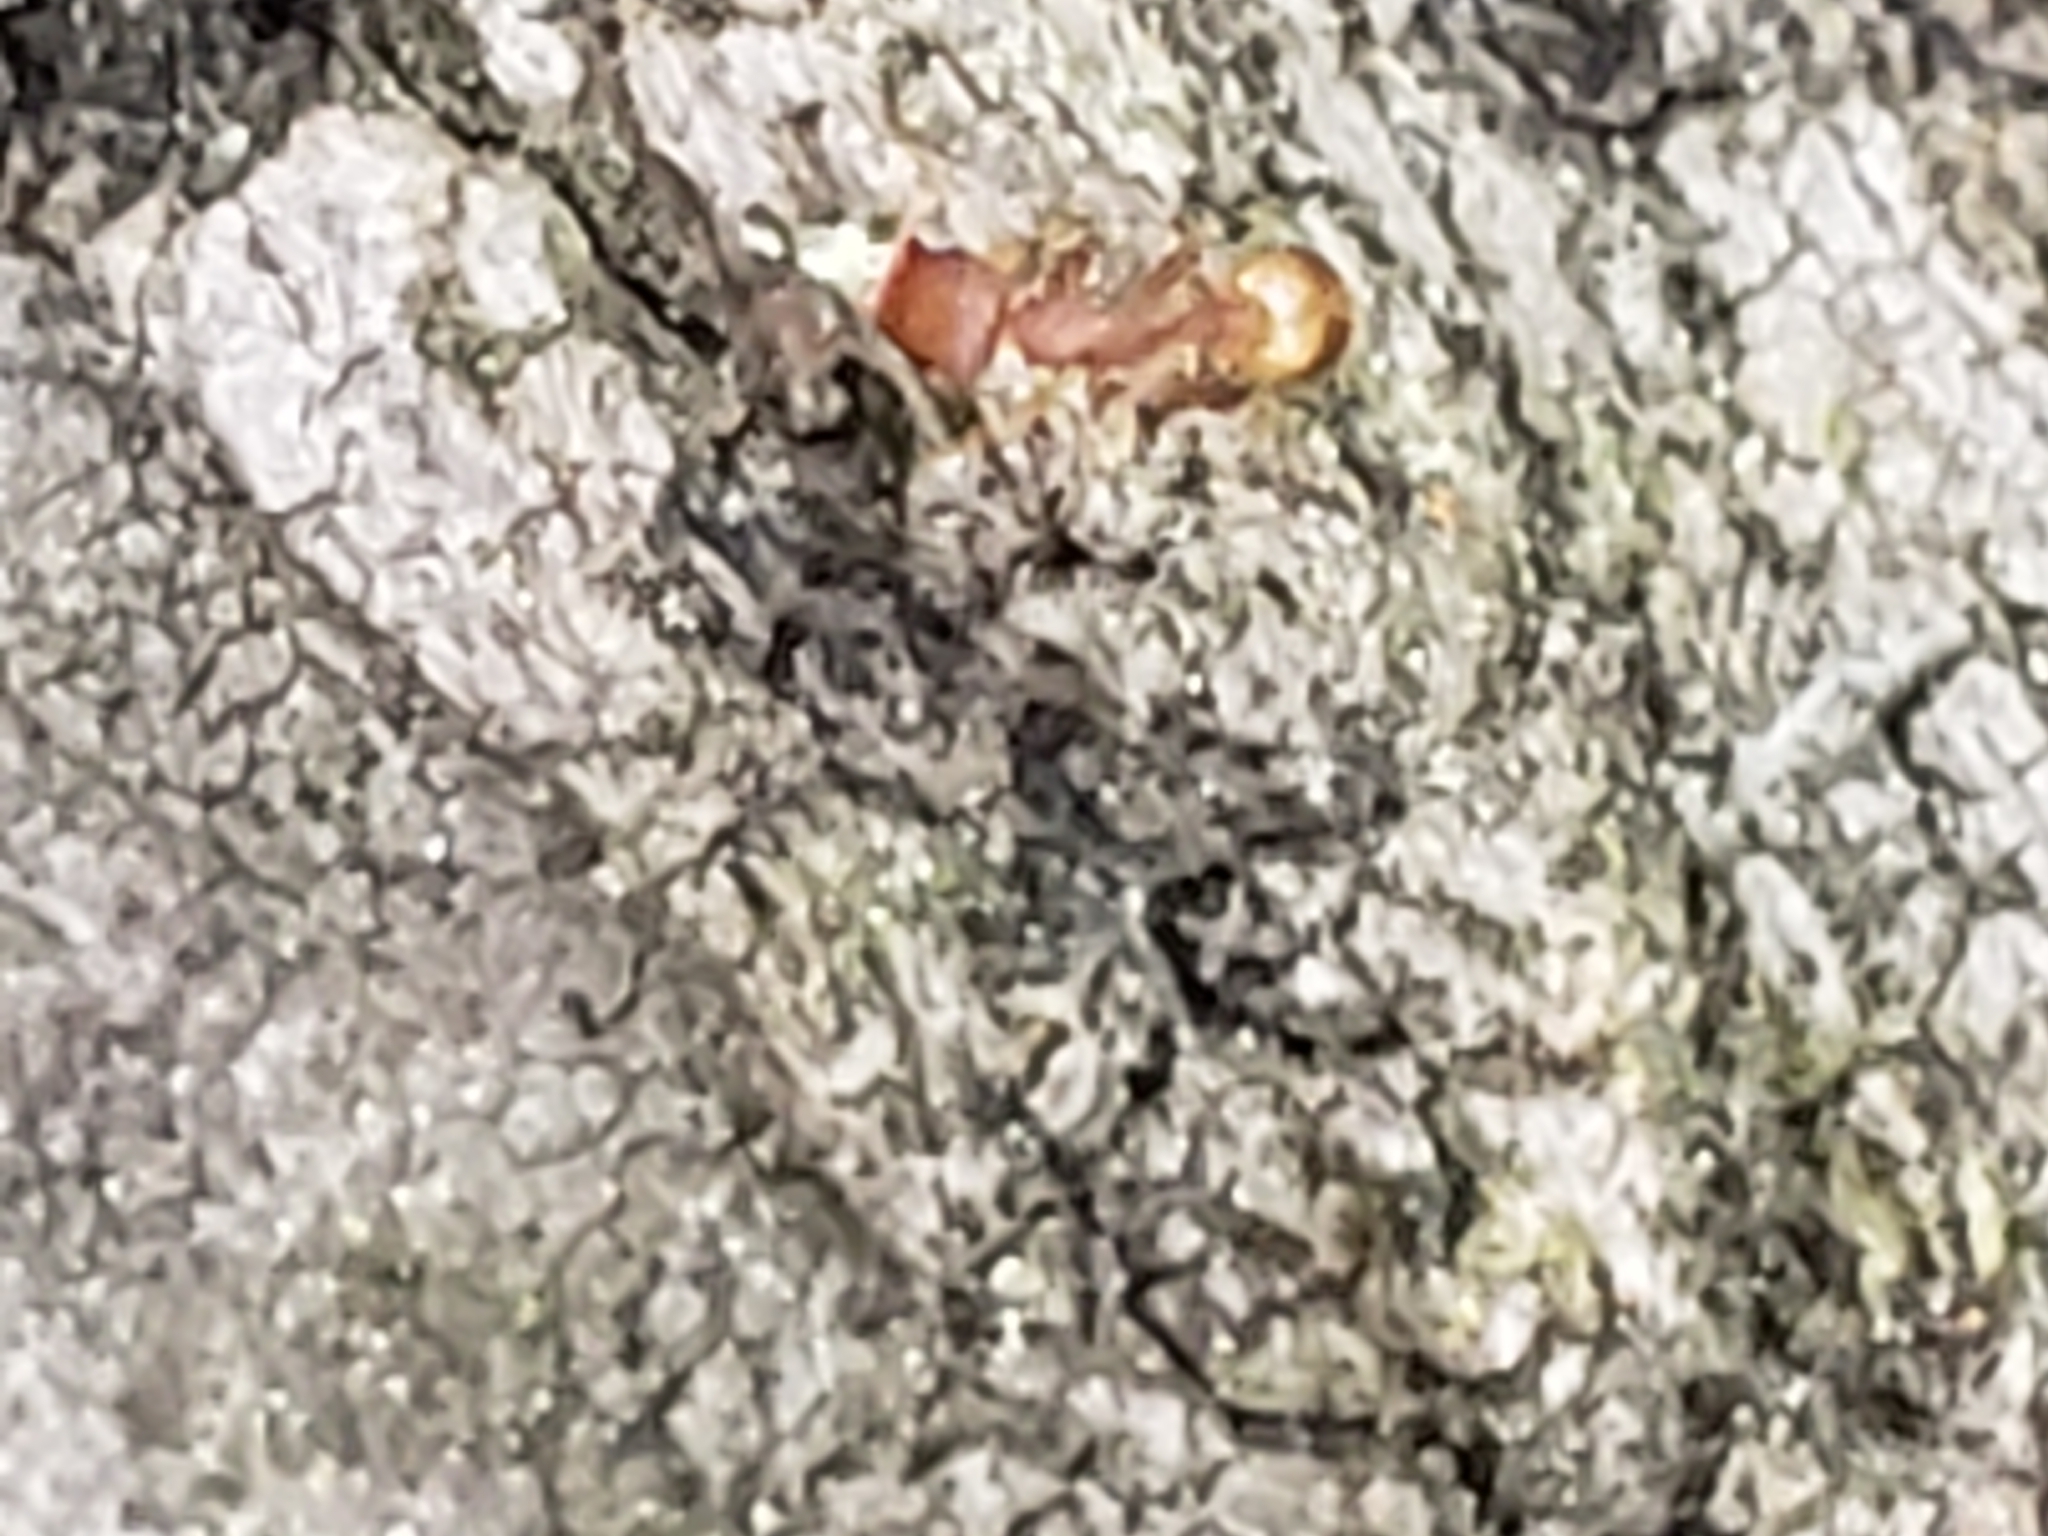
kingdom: Animalia
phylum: Arthropoda
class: Insecta
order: Hymenoptera
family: Formicidae
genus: Temnothorax
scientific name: Temnothorax curvispinosus
